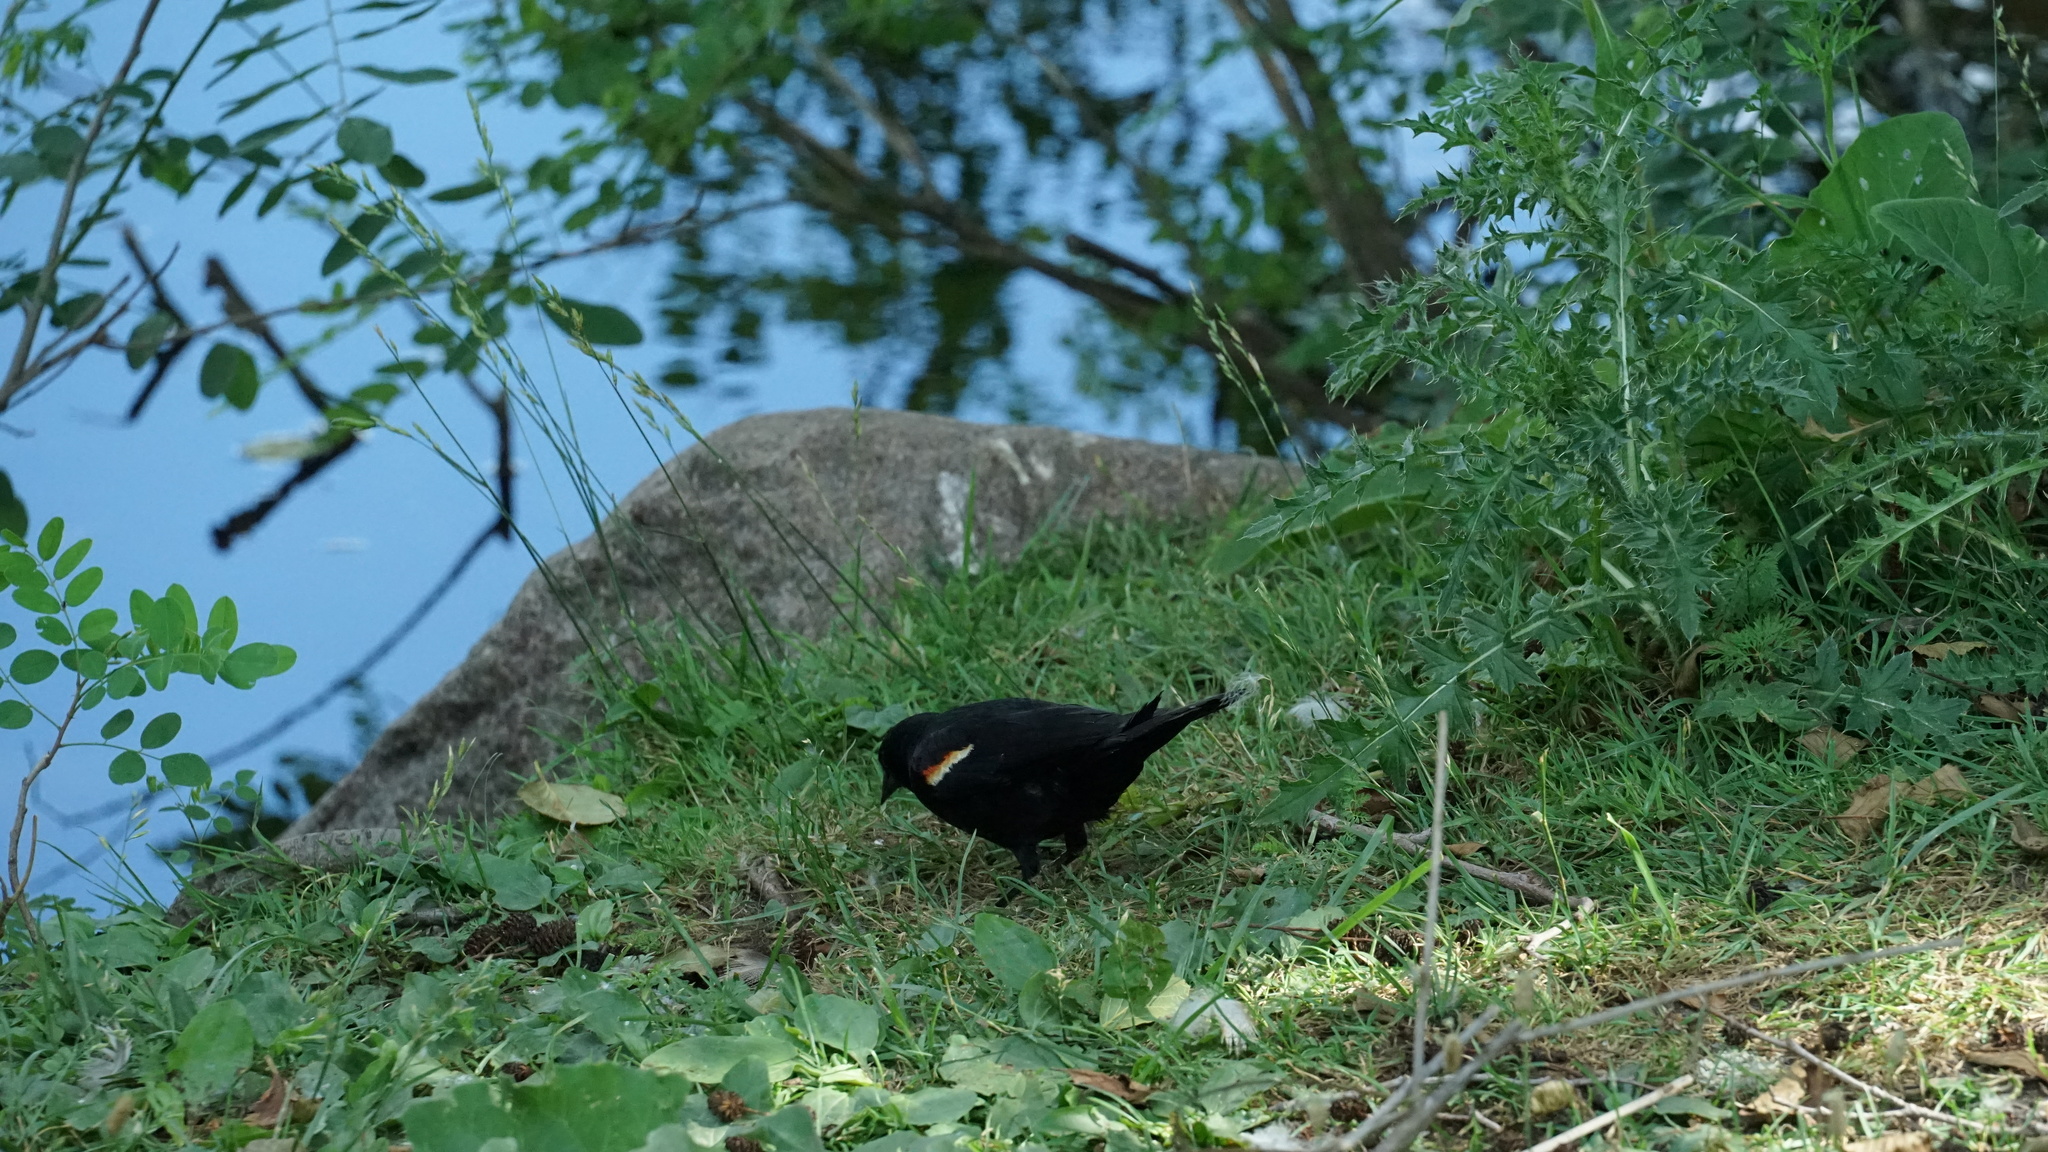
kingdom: Animalia
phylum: Chordata
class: Aves
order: Passeriformes
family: Icteridae
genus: Agelaius
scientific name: Agelaius phoeniceus
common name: Red-winged blackbird
